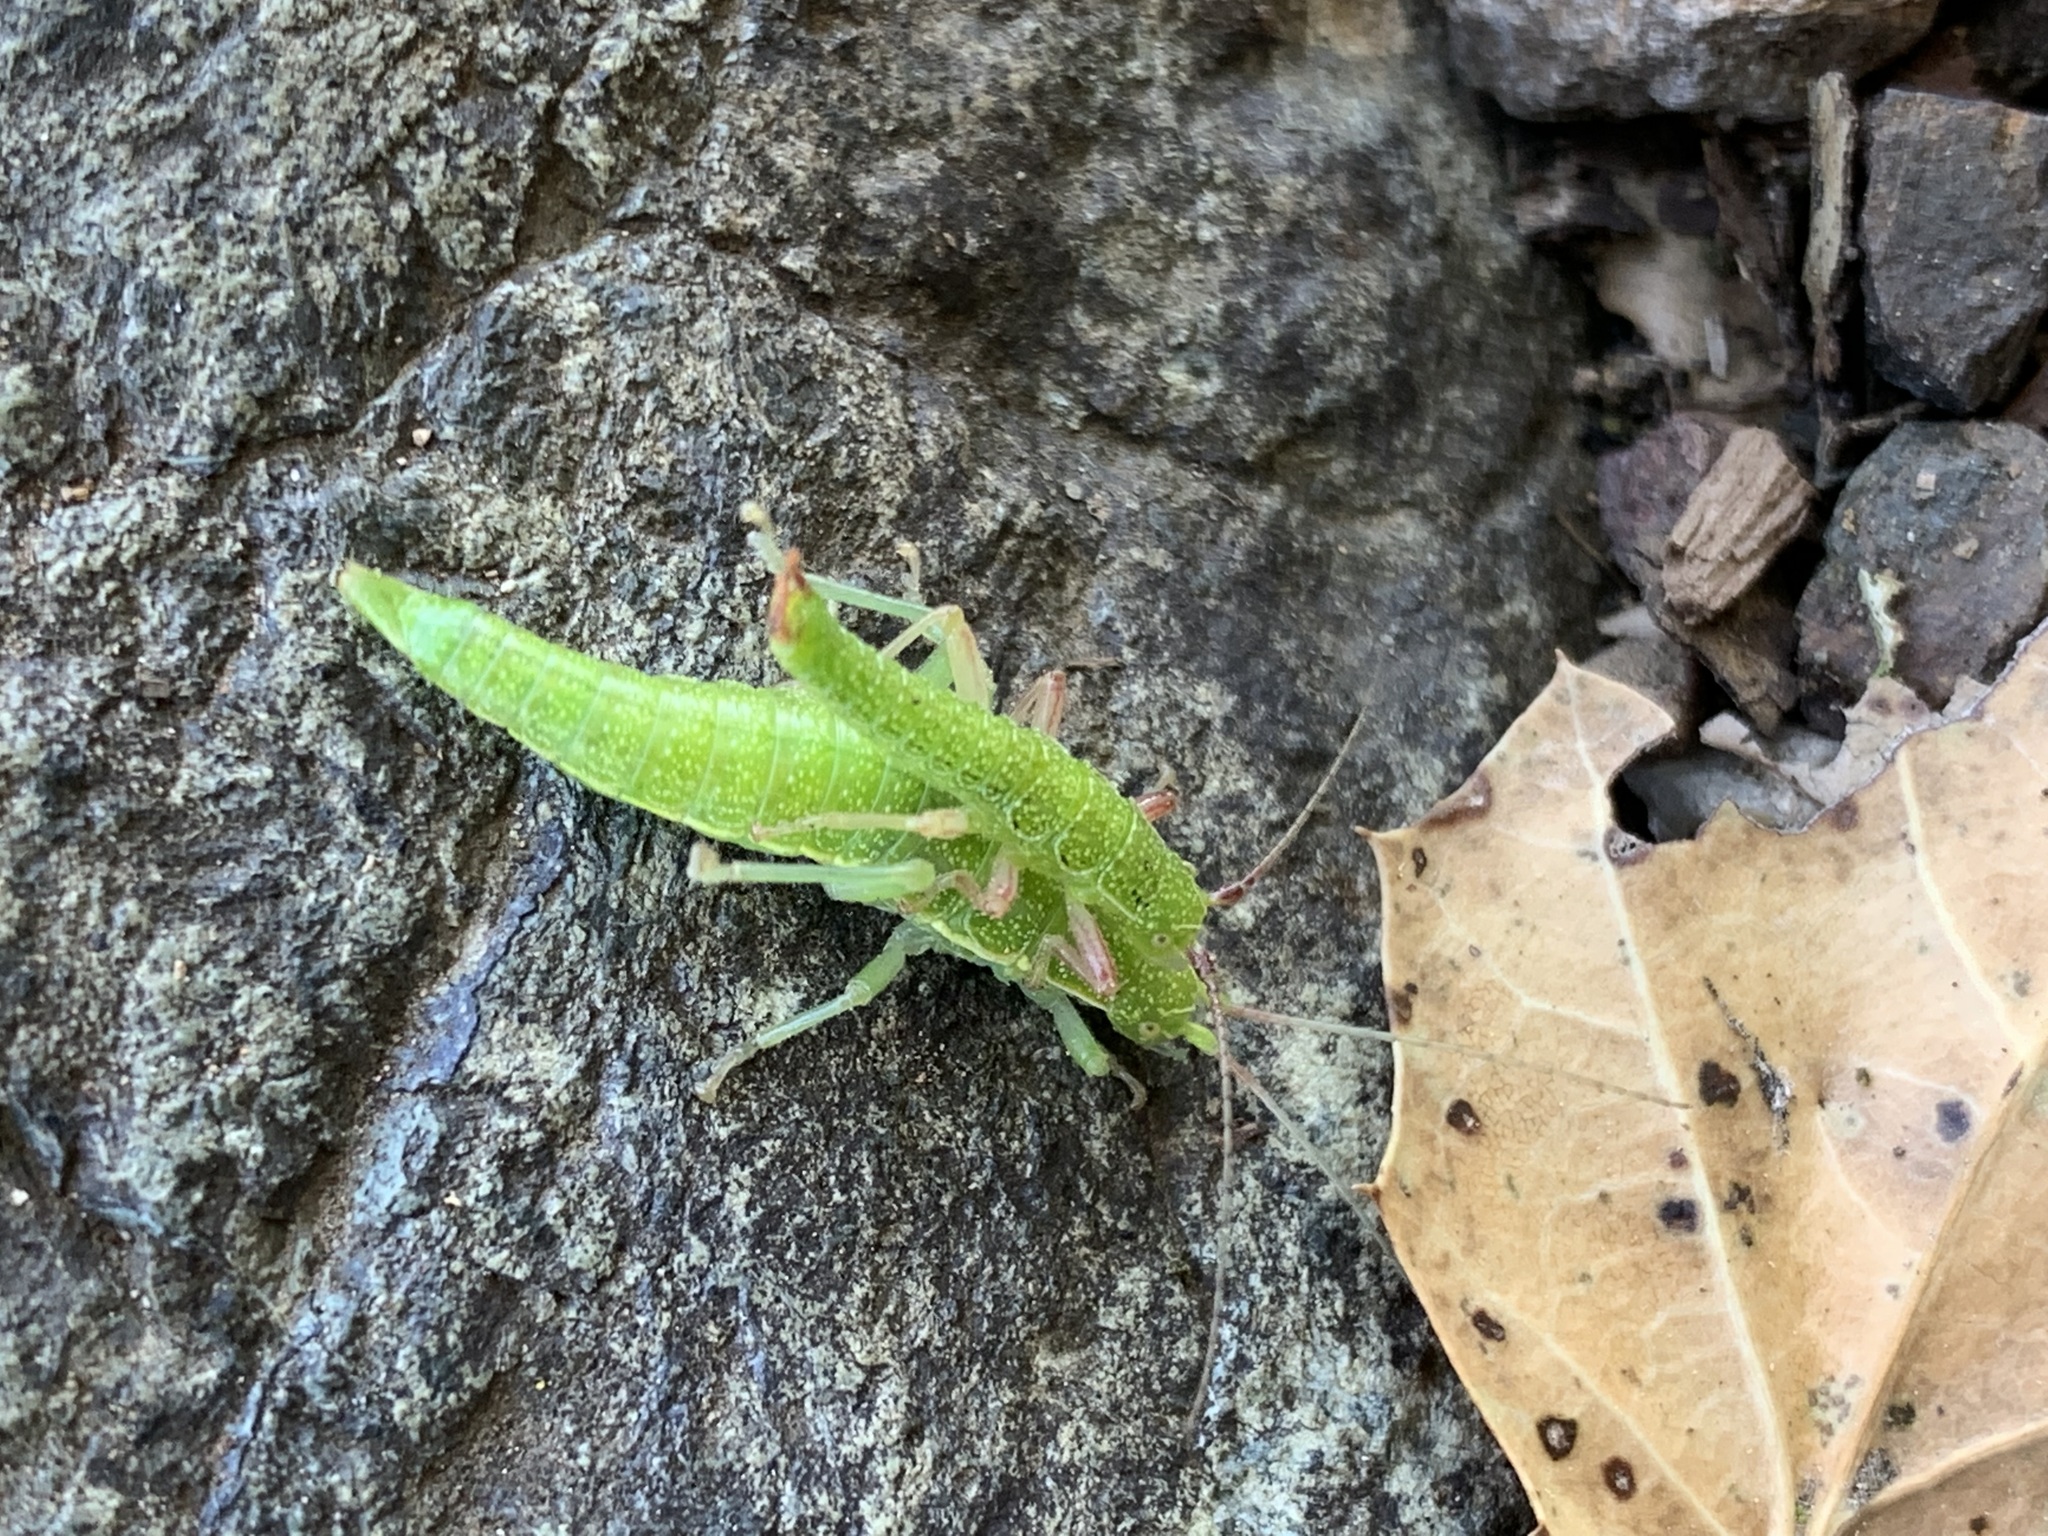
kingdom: Animalia
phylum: Arthropoda
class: Insecta
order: Phasmida
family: Timematidae
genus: Timema
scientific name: Timema californicum
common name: California timema
